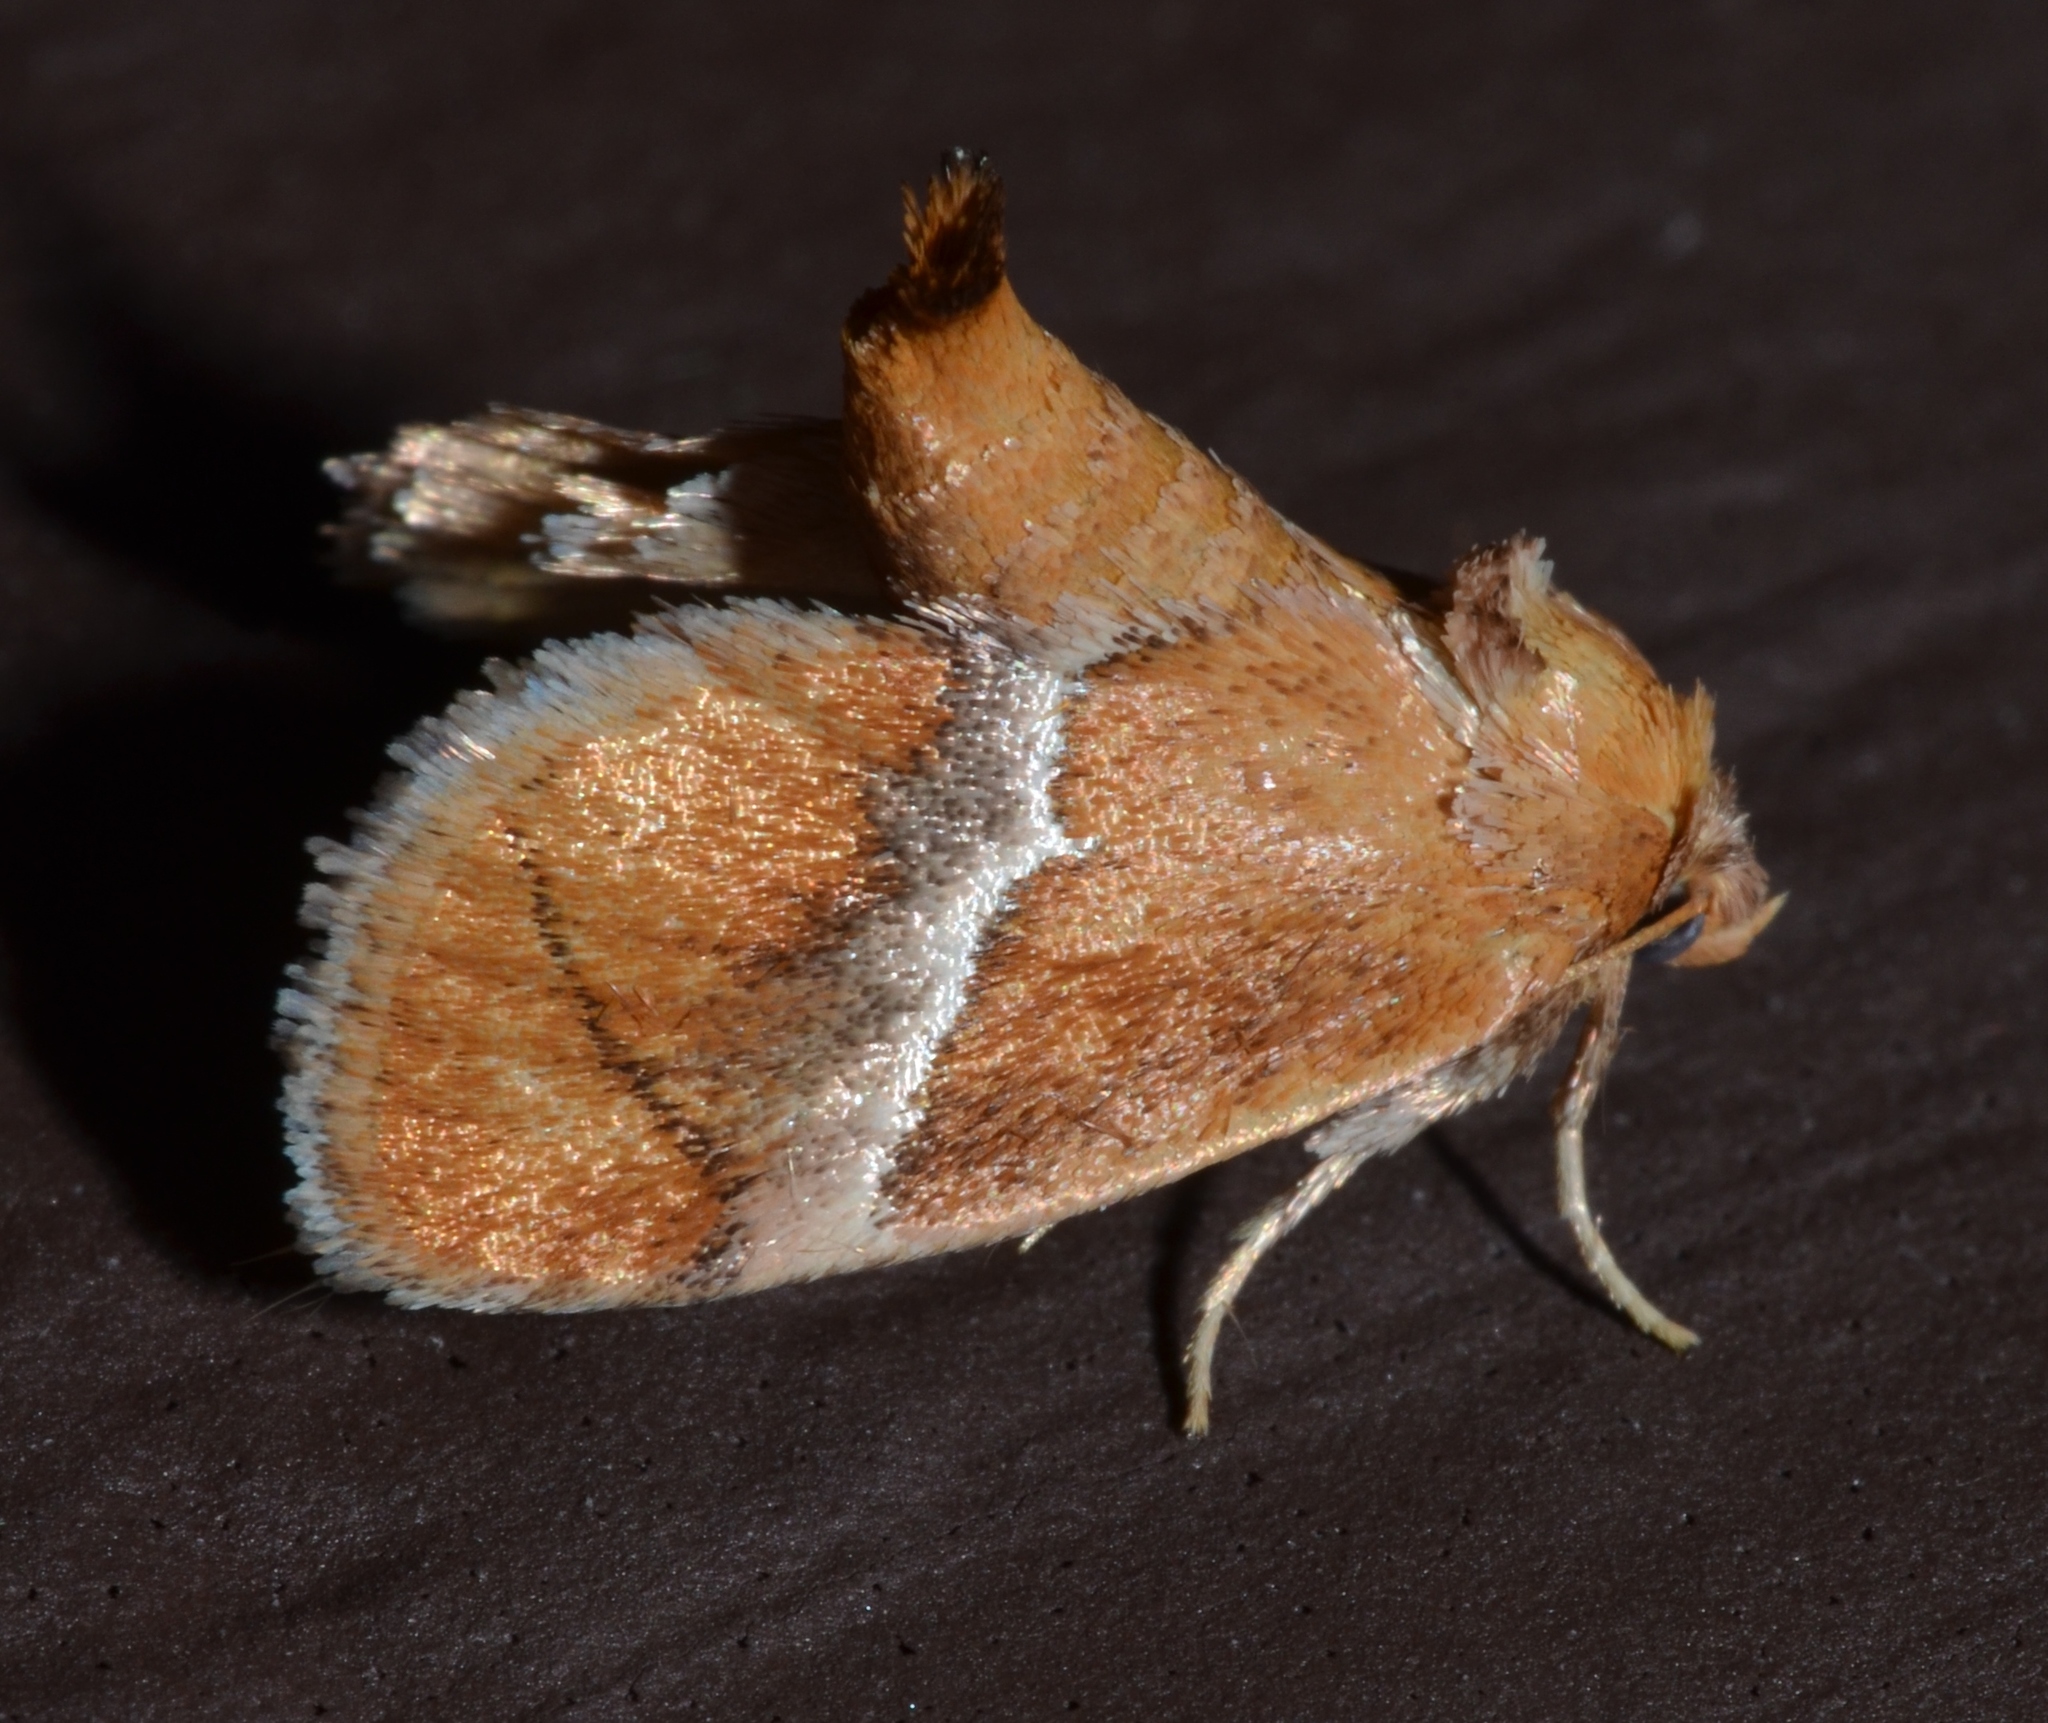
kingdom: Animalia
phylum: Arthropoda
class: Insecta
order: Lepidoptera
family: Limacodidae
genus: Lithacodes
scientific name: Lithacodes fasciola
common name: Yellow-shouldered slug moth
